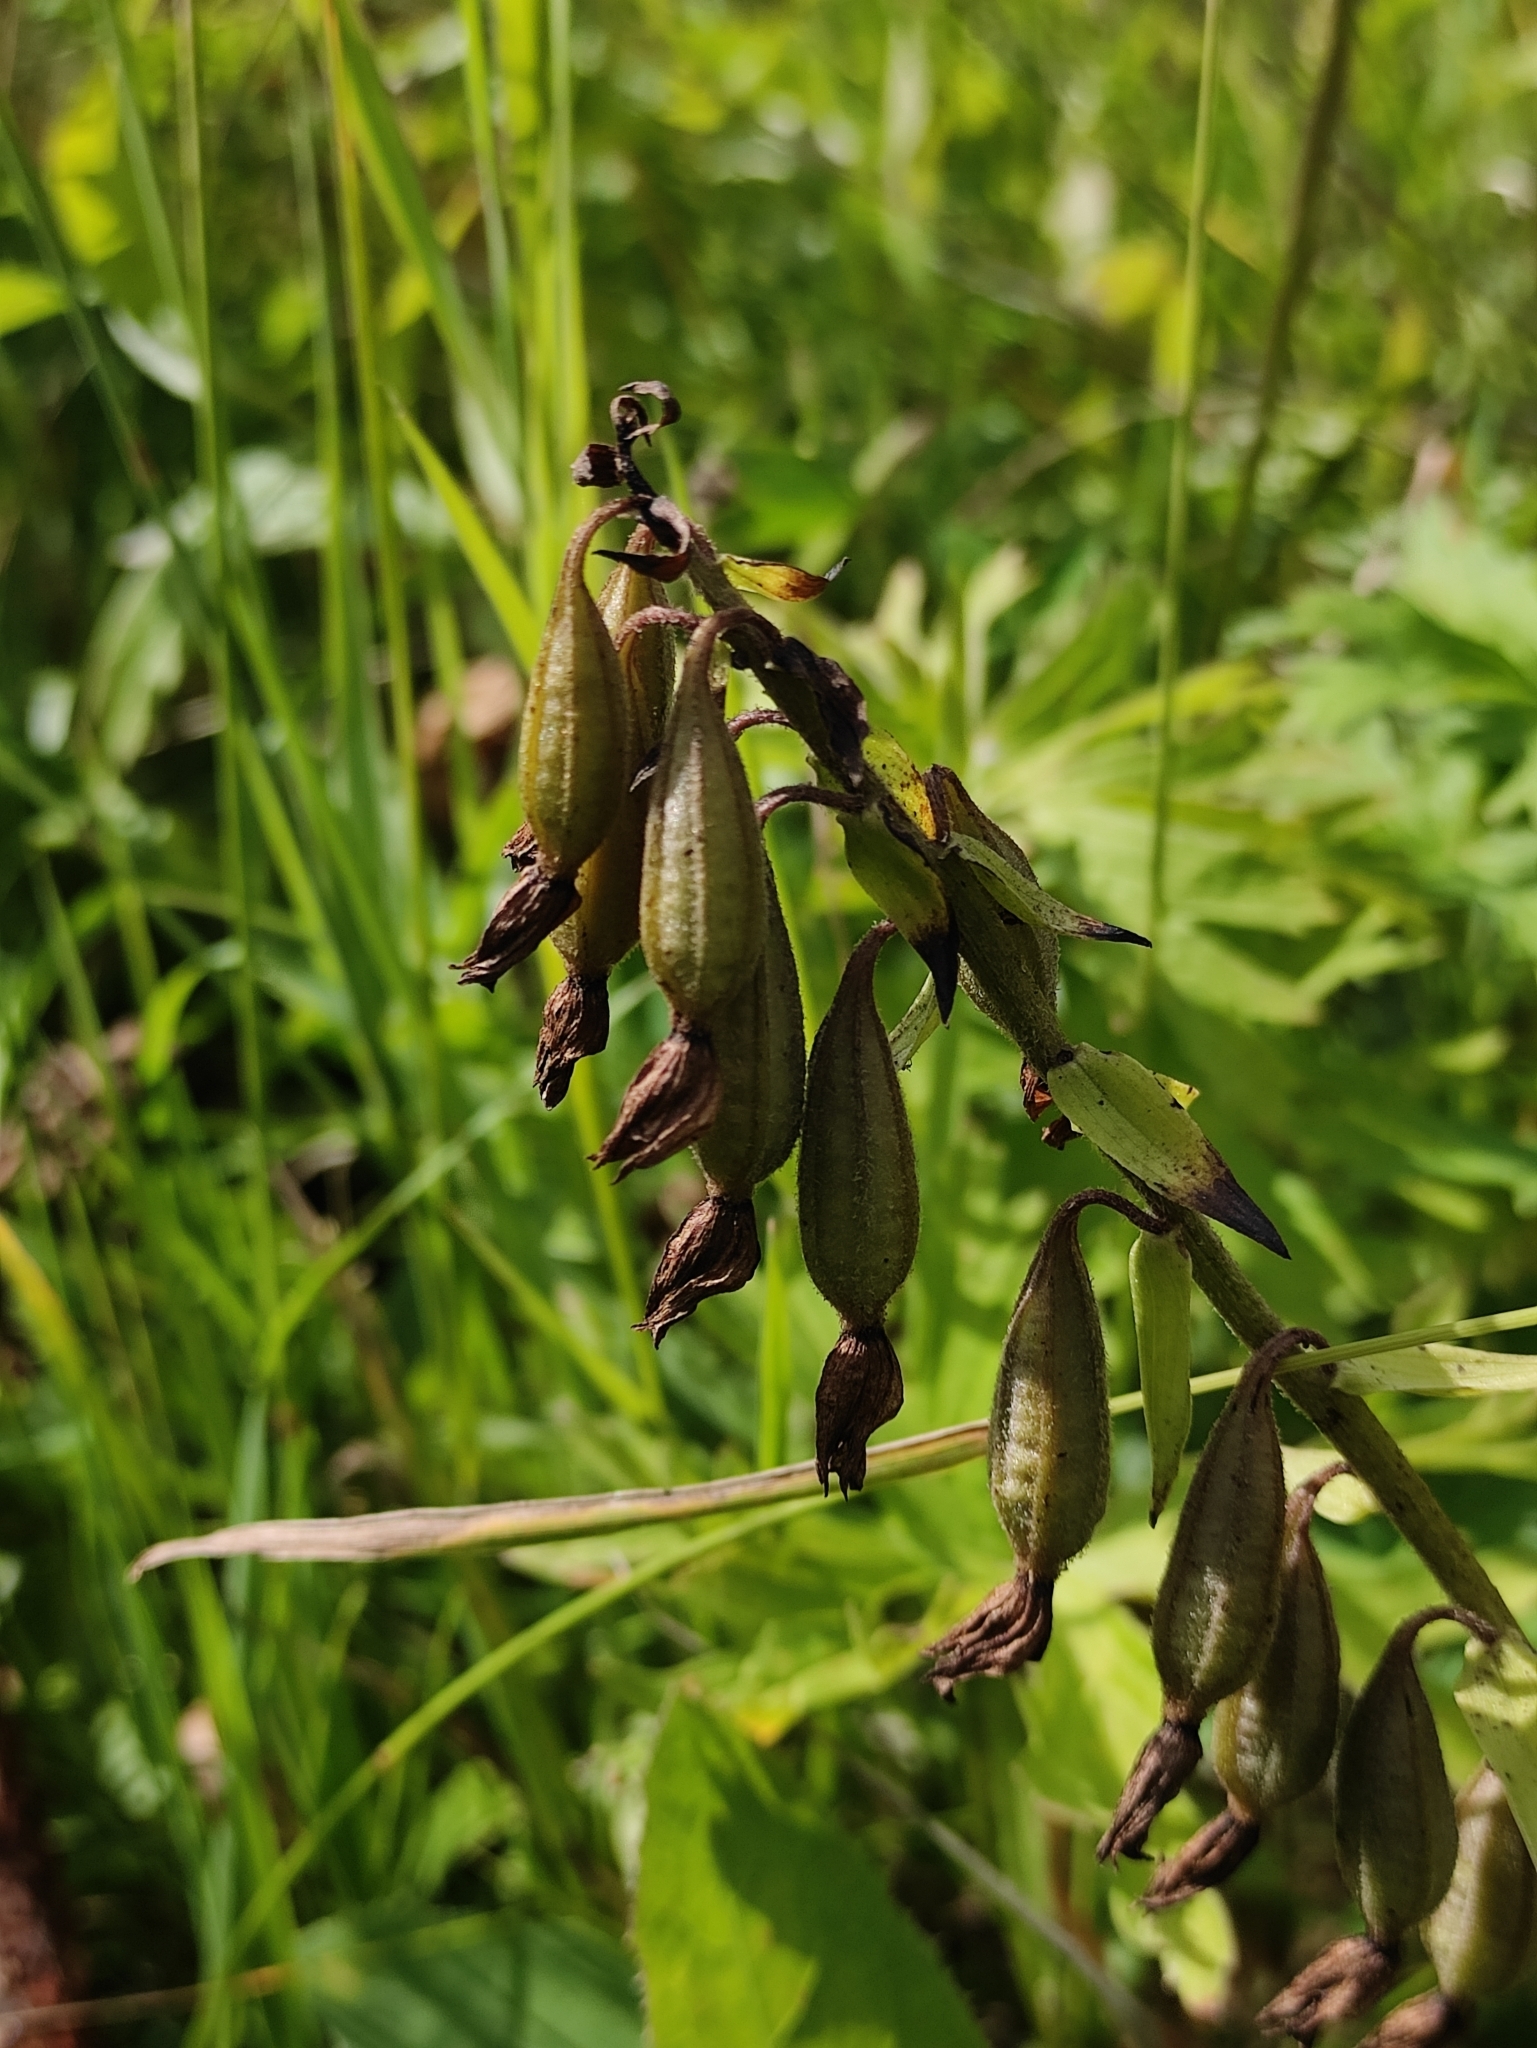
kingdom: Plantae
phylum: Tracheophyta
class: Liliopsida
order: Asparagales
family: Orchidaceae
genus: Epipactis
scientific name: Epipactis palustris
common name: Marsh helleborine
